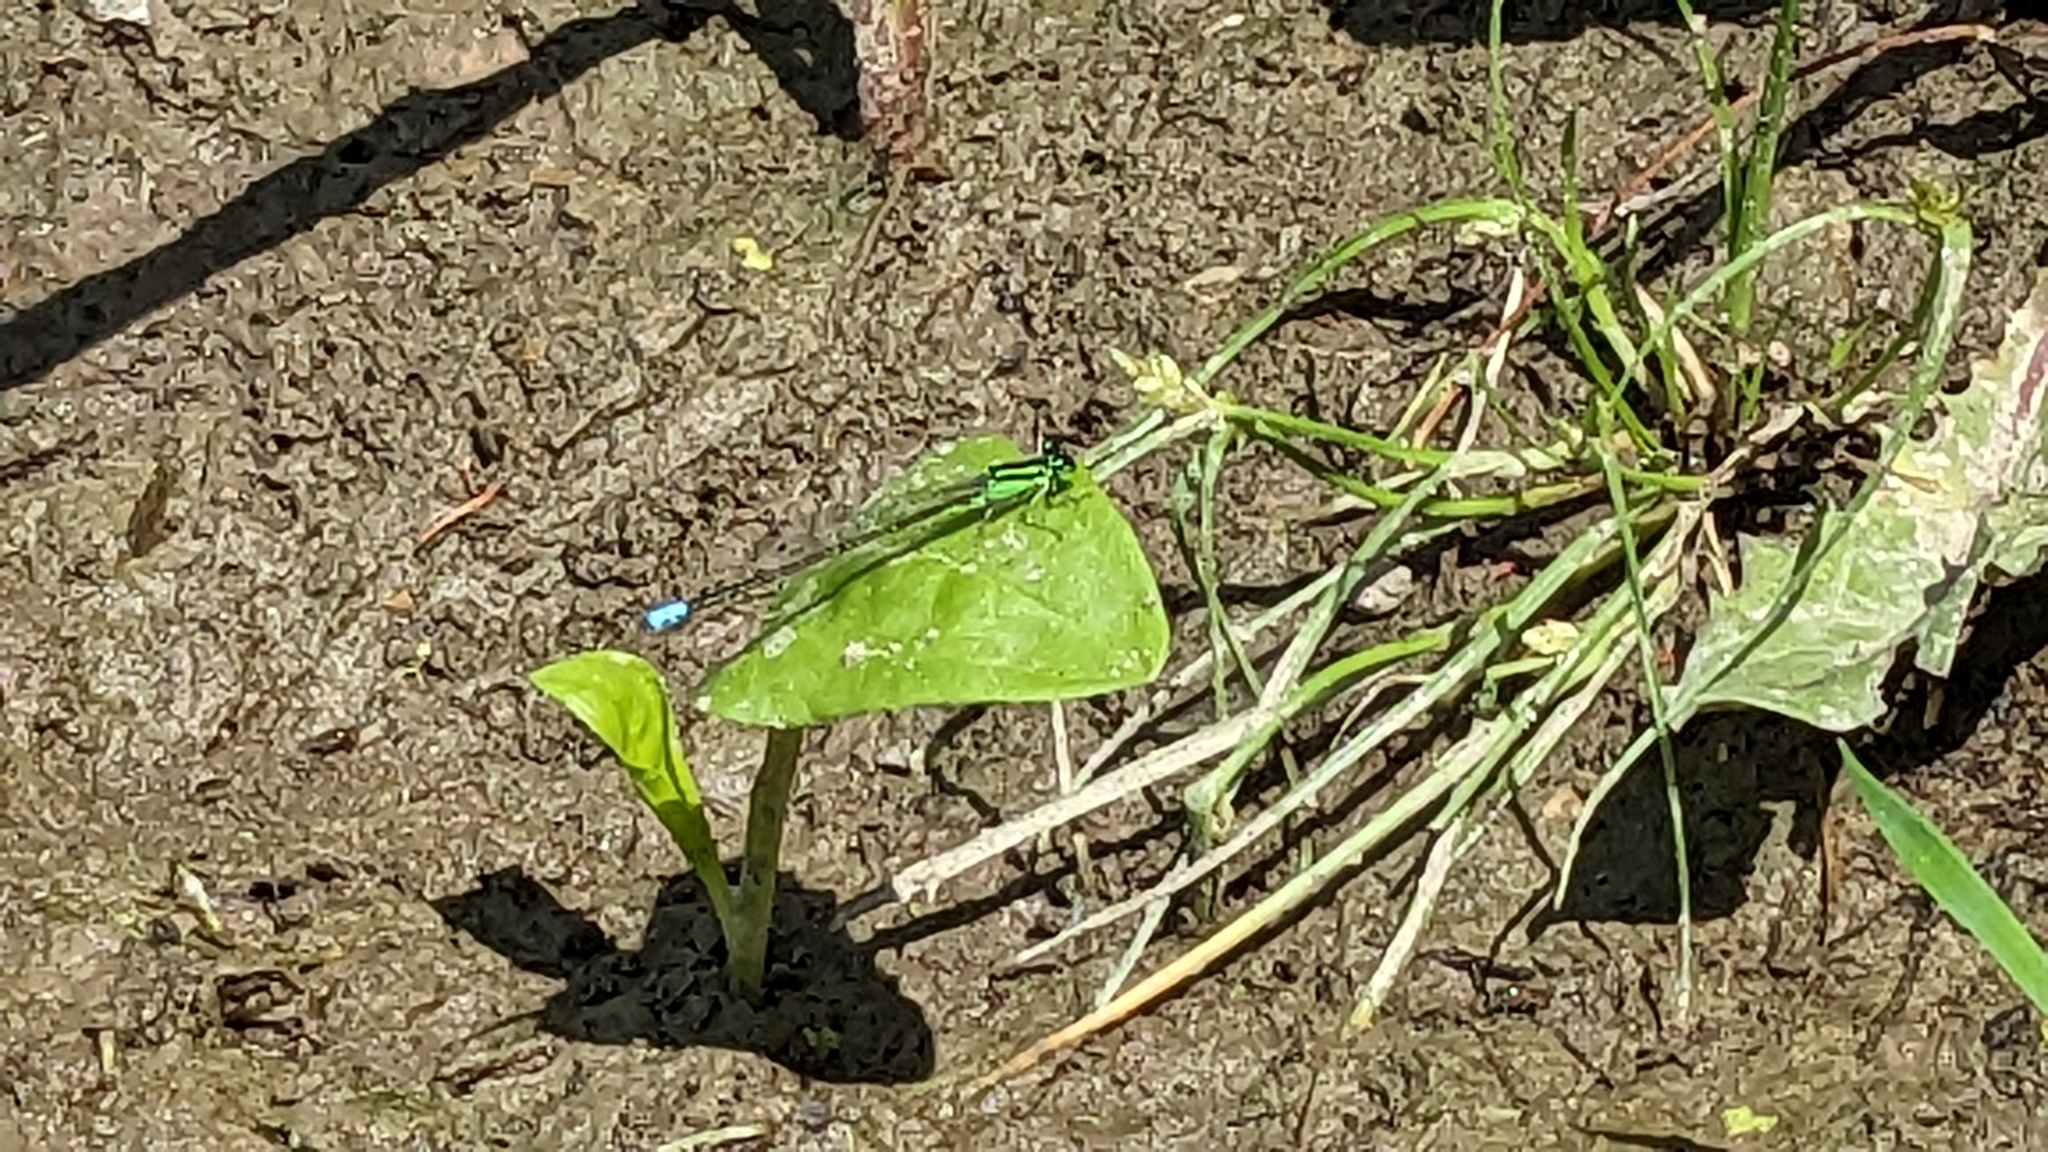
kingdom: Animalia
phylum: Arthropoda
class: Insecta
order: Odonata
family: Coenagrionidae
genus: Ischnura
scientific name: Ischnura verticalis
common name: Eastern forktail
